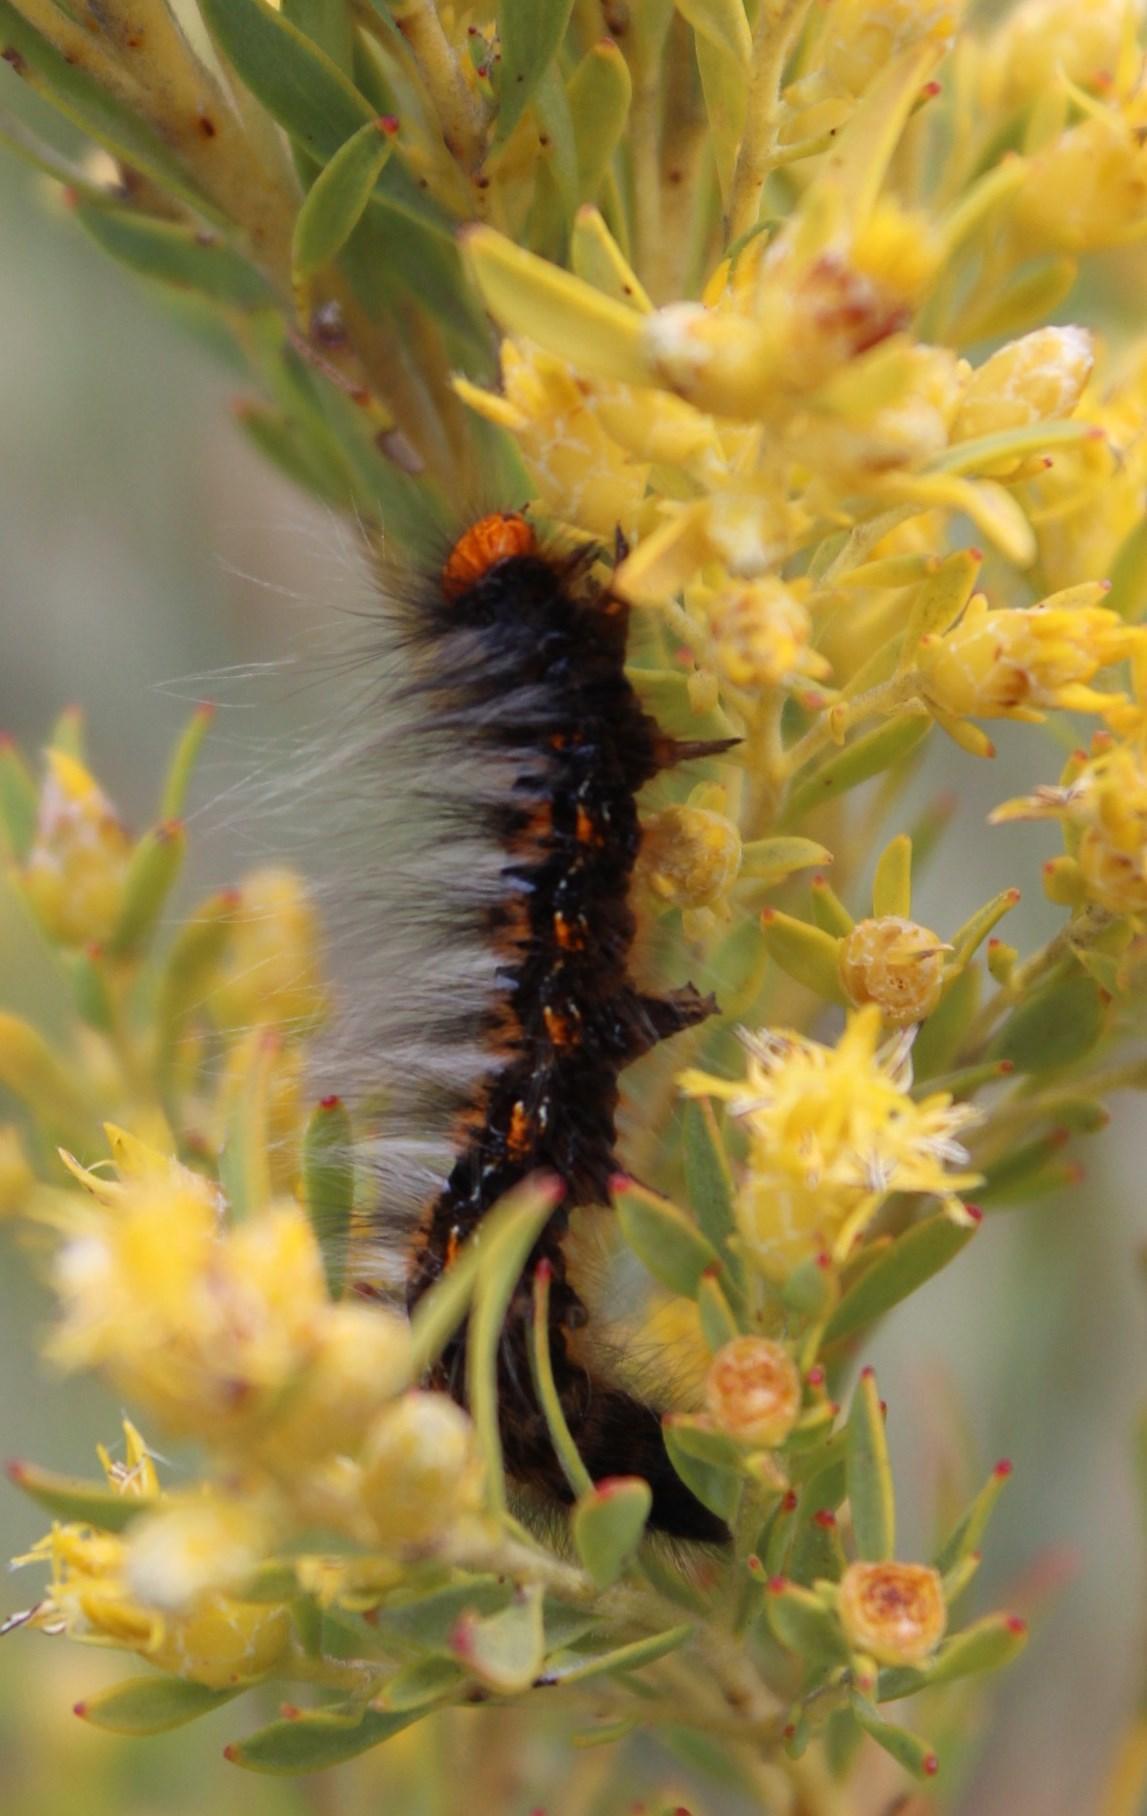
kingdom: Animalia
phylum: Arthropoda
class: Insecta
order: Lepidoptera
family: Lasiocampidae
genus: Mesocelis
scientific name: Mesocelis monticola
